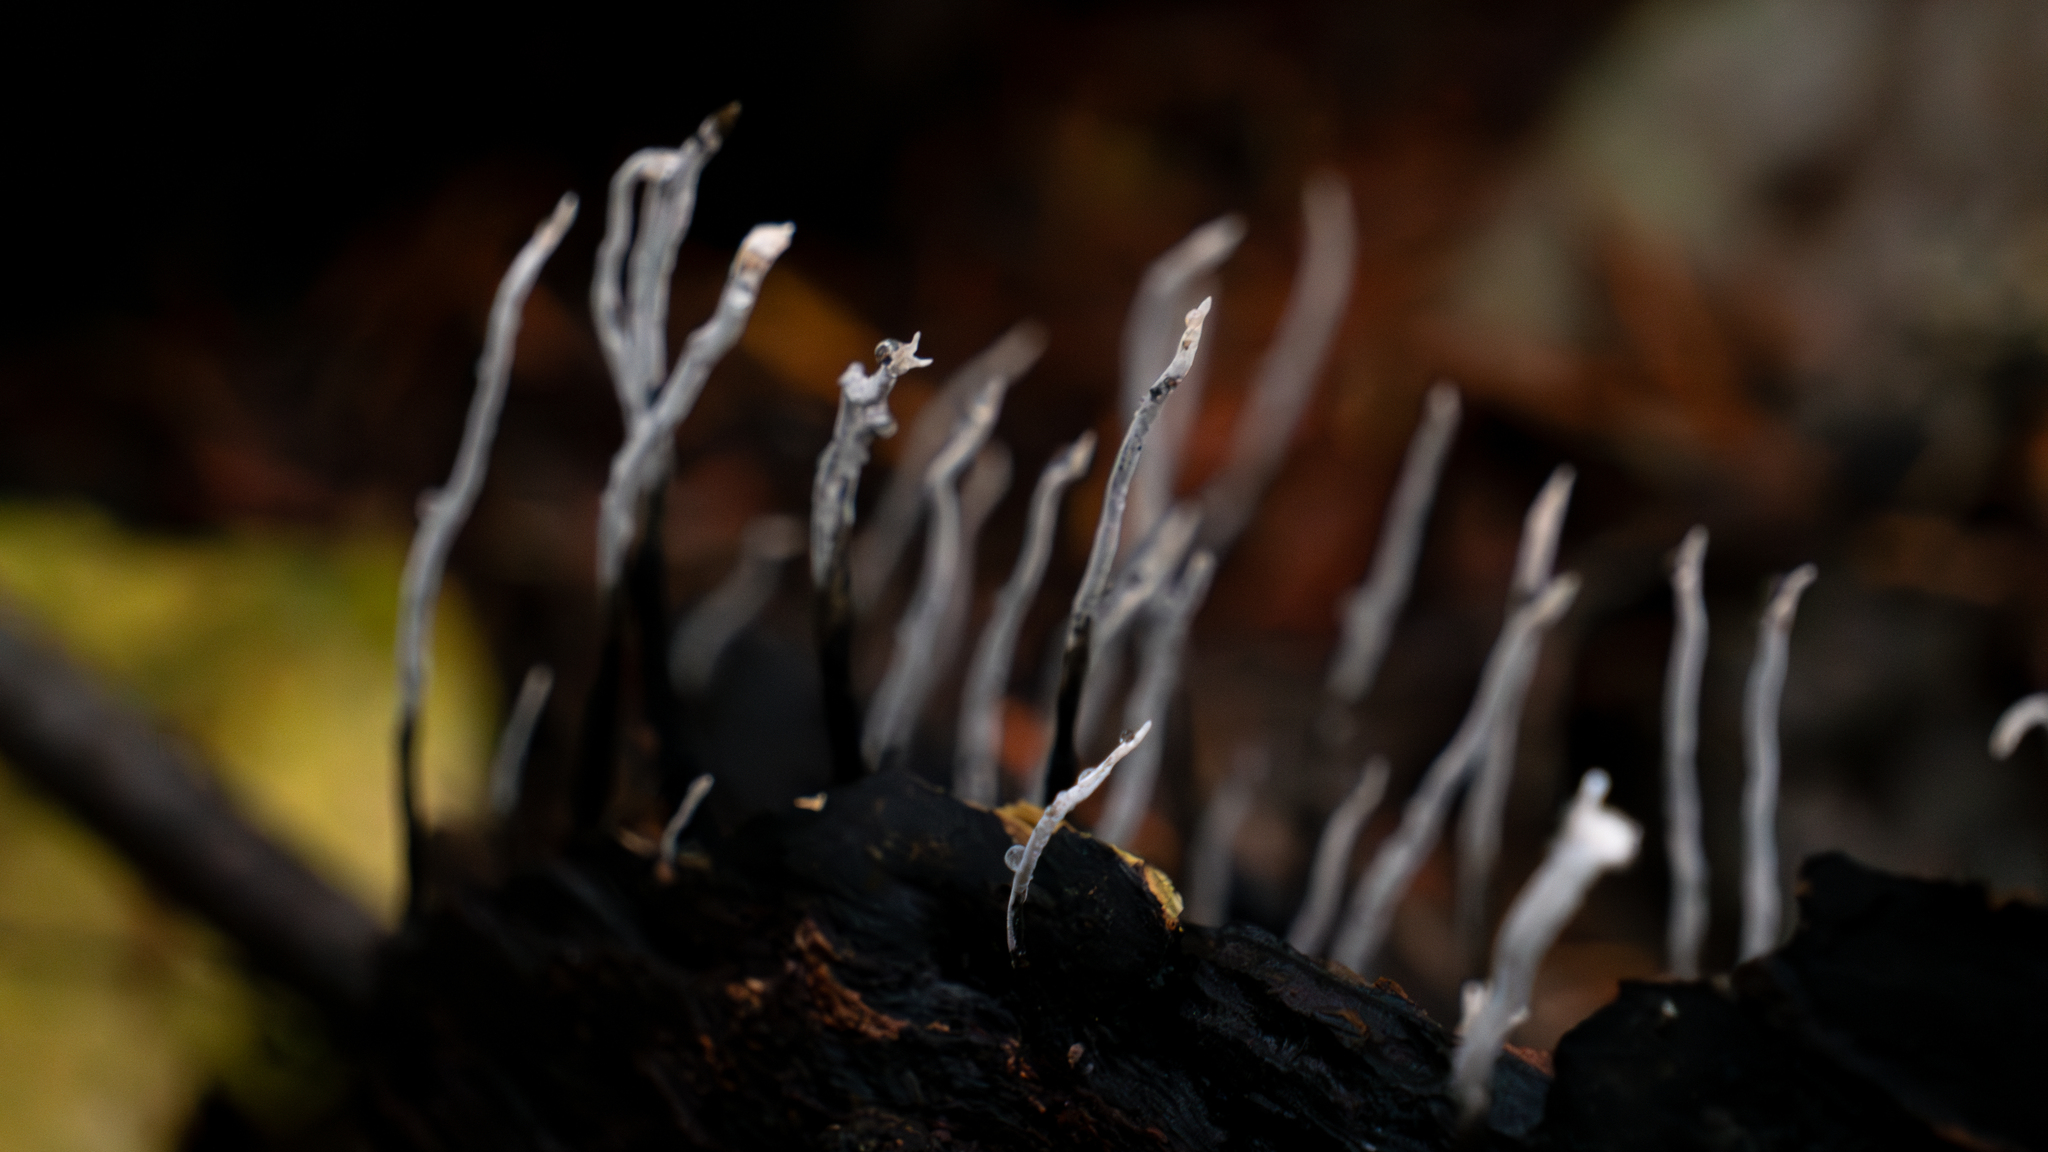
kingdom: Fungi
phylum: Ascomycota
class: Sordariomycetes
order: Xylariales
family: Xylariaceae
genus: Xylaria
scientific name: Xylaria hypoxylon
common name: Candle-snuff fungus
